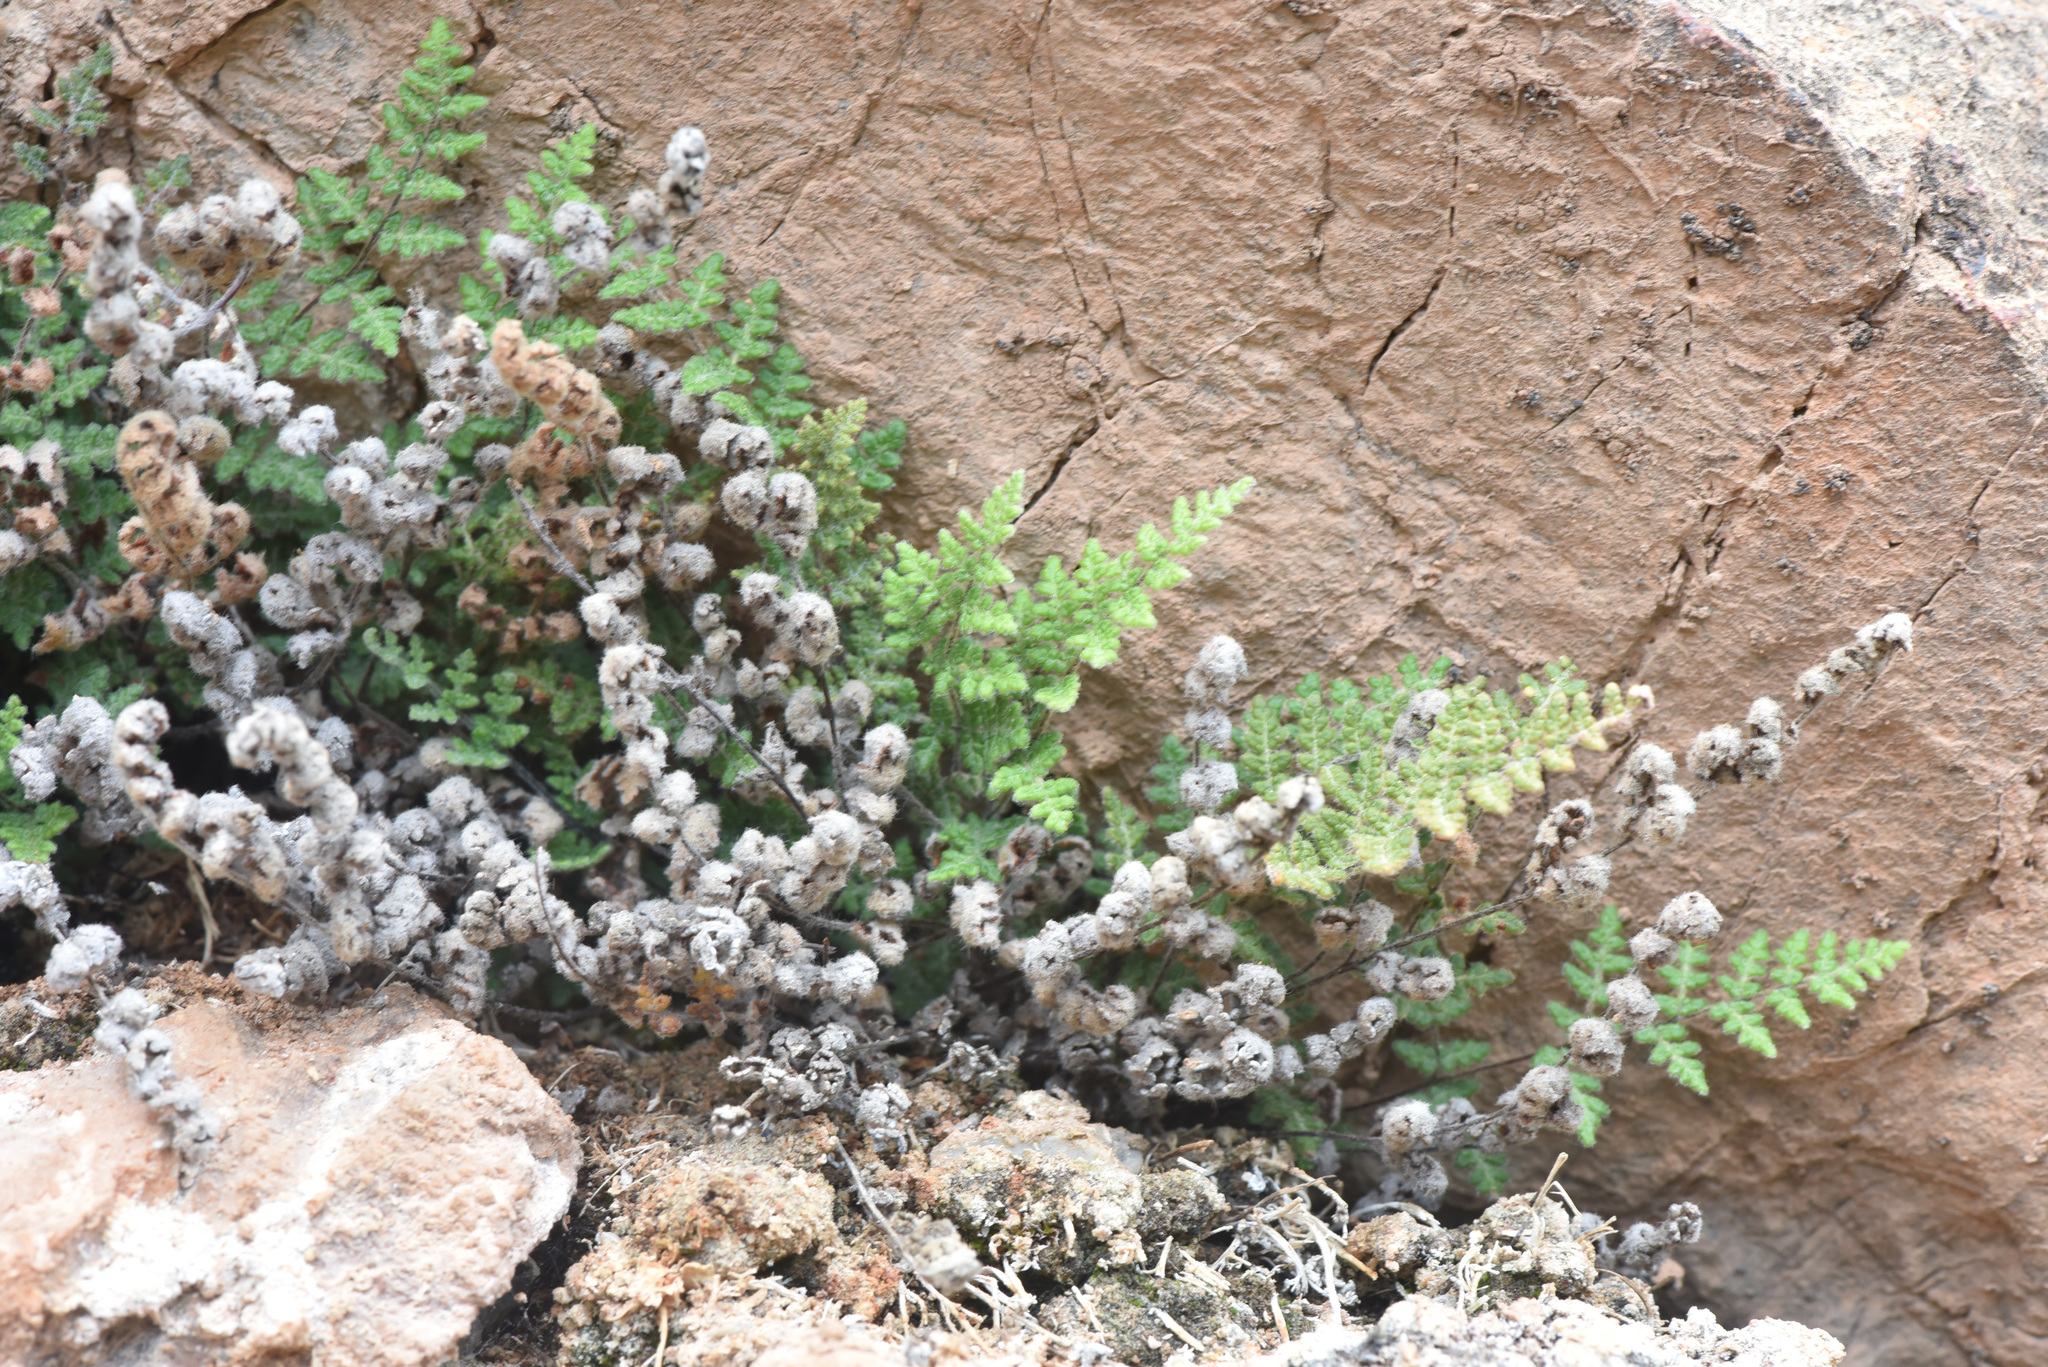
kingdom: Plantae
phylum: Tracheophyta
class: Polypodiopsida
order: Polypodiales
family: Pteridaceae
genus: Myriopteris
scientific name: Myriopteris gracilis
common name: Fee's lip fern
